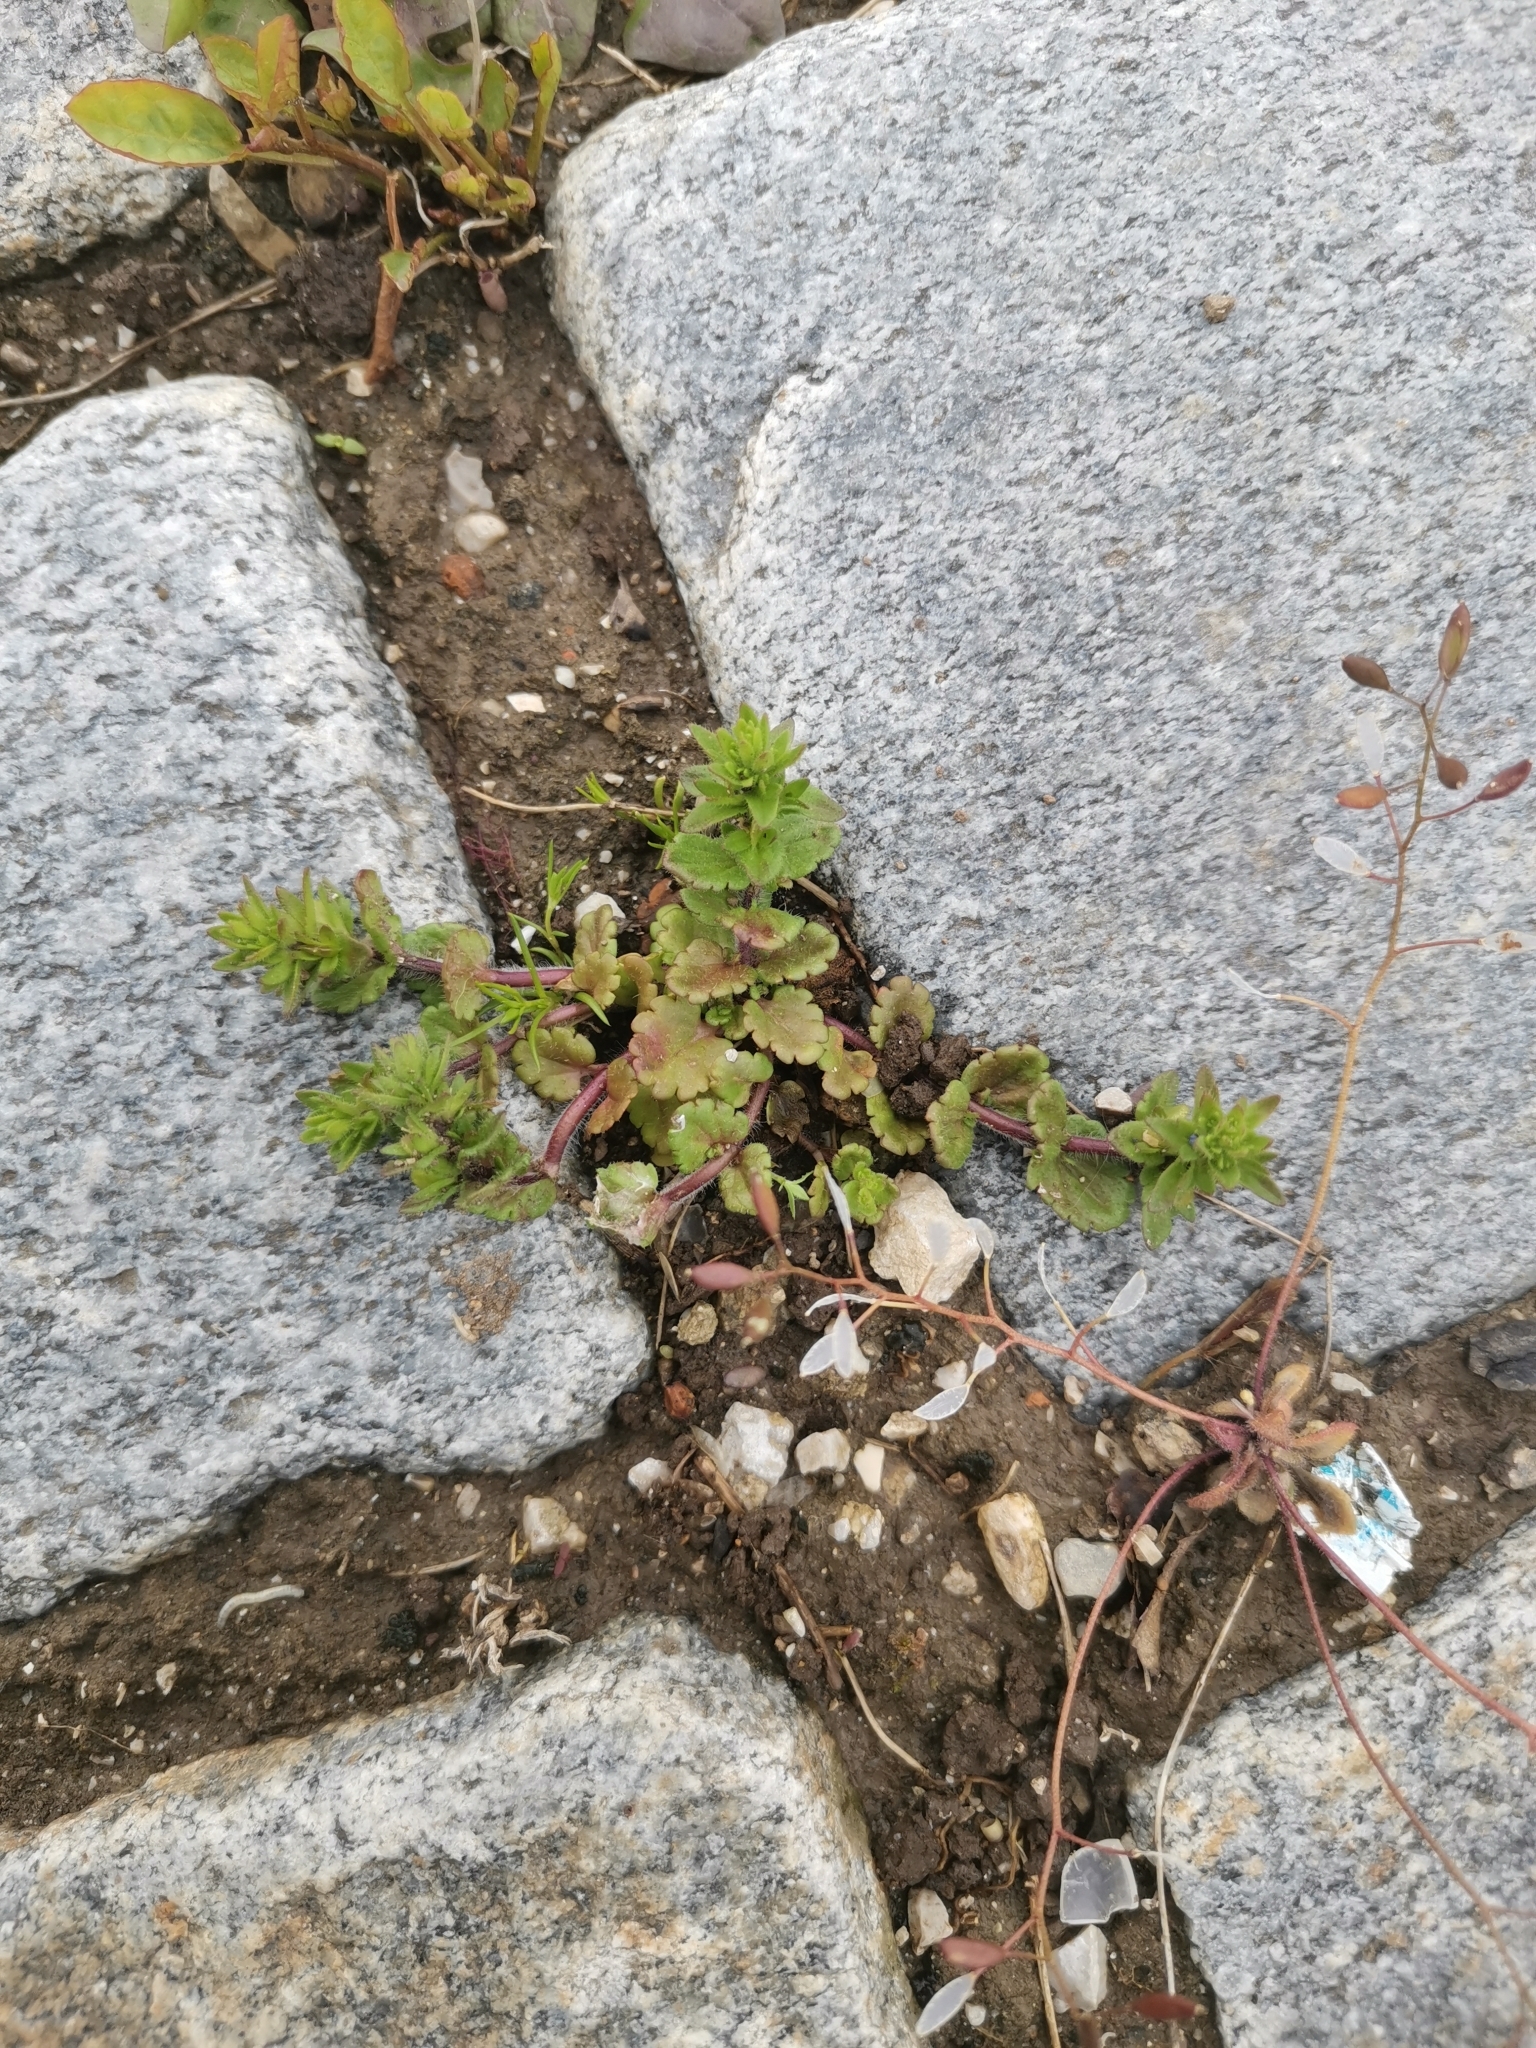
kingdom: Plantae
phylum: Tracheophyta
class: Magnoliopsida
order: Lamiales
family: Plantaginaceae
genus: Veronica
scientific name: Veronica arvensis
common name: Corn speedwell
